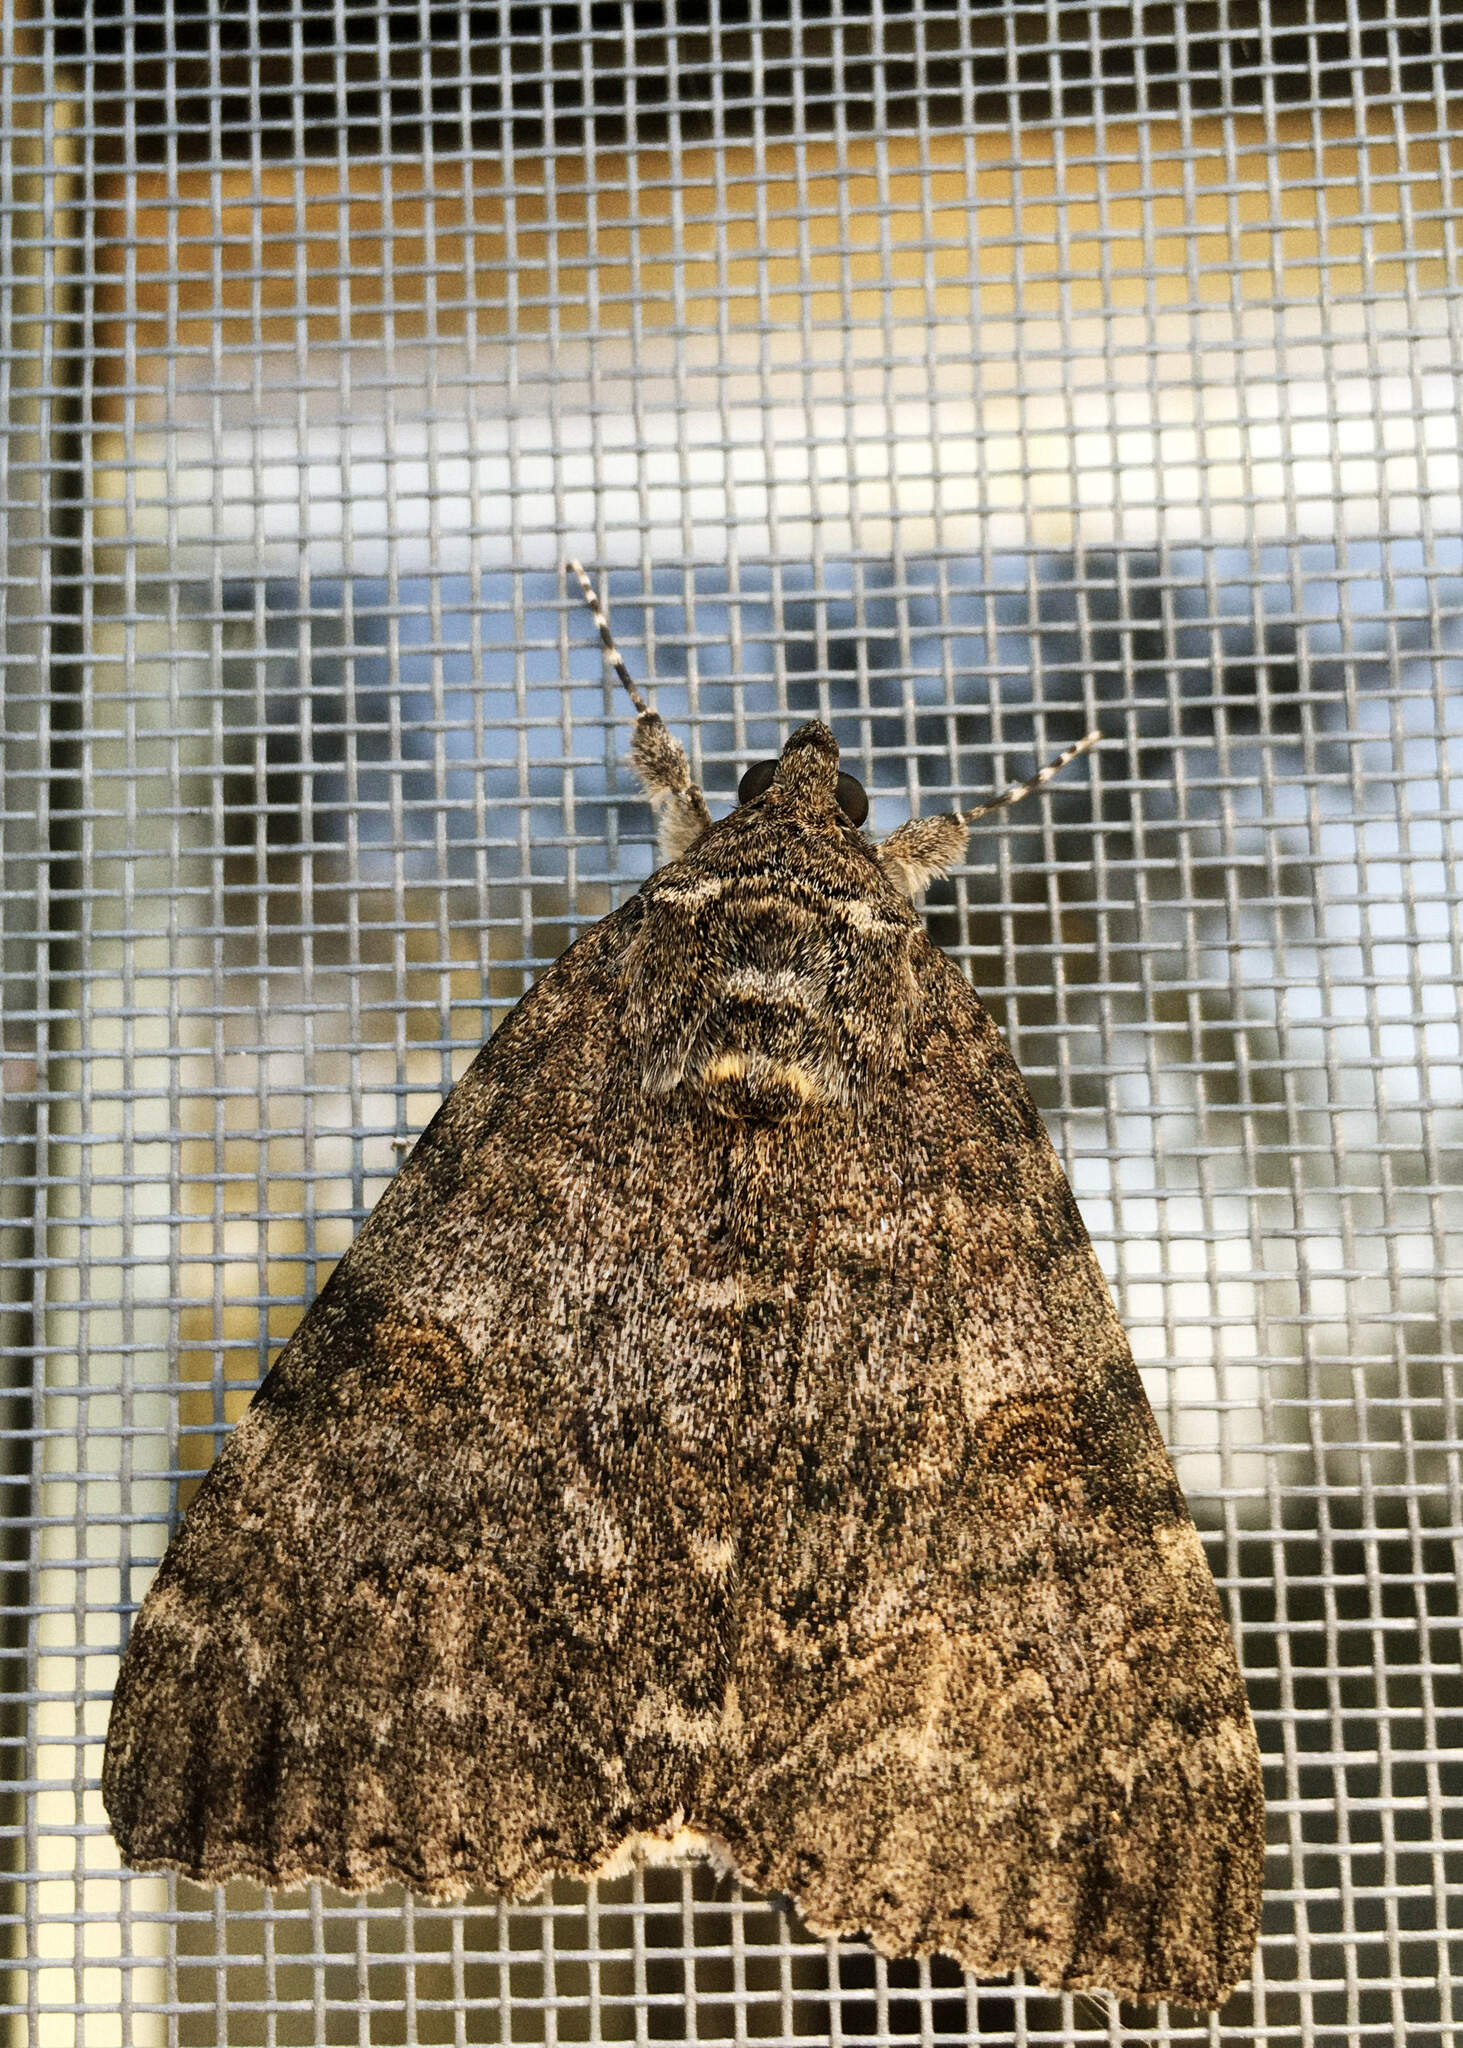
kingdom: Animalia
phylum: Arthropoda
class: Insecta
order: Lepidoptera
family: Erebidae
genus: Catocala
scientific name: Catocala nupta
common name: Red underwing
